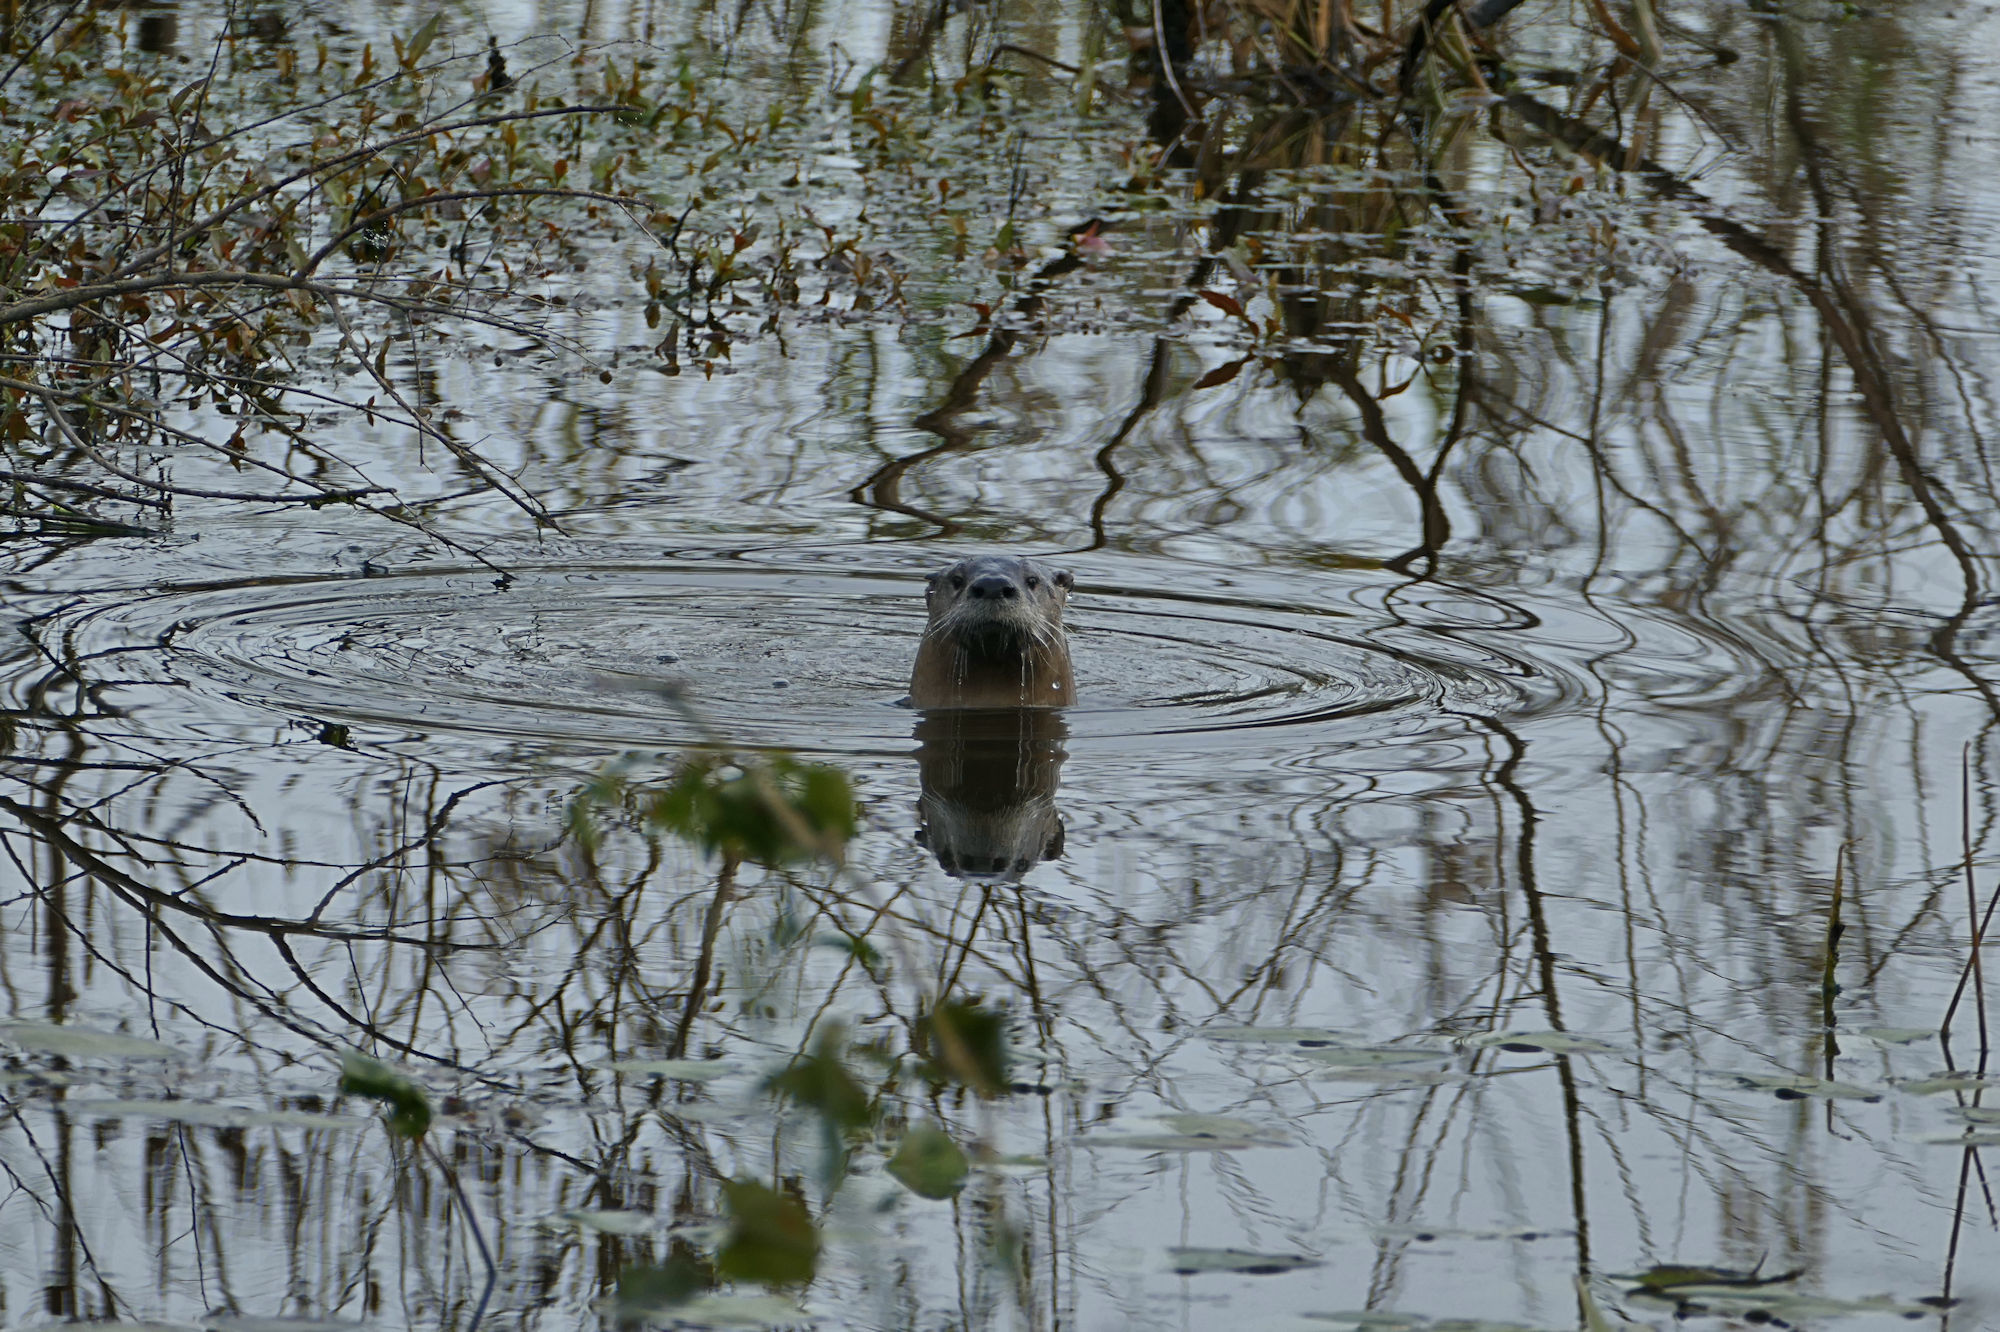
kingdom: Animalia
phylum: Chordata
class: Mammalia
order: Carnivora
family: Mustelidae
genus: Lontra
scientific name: Lontra canadensis
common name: North american river otter
